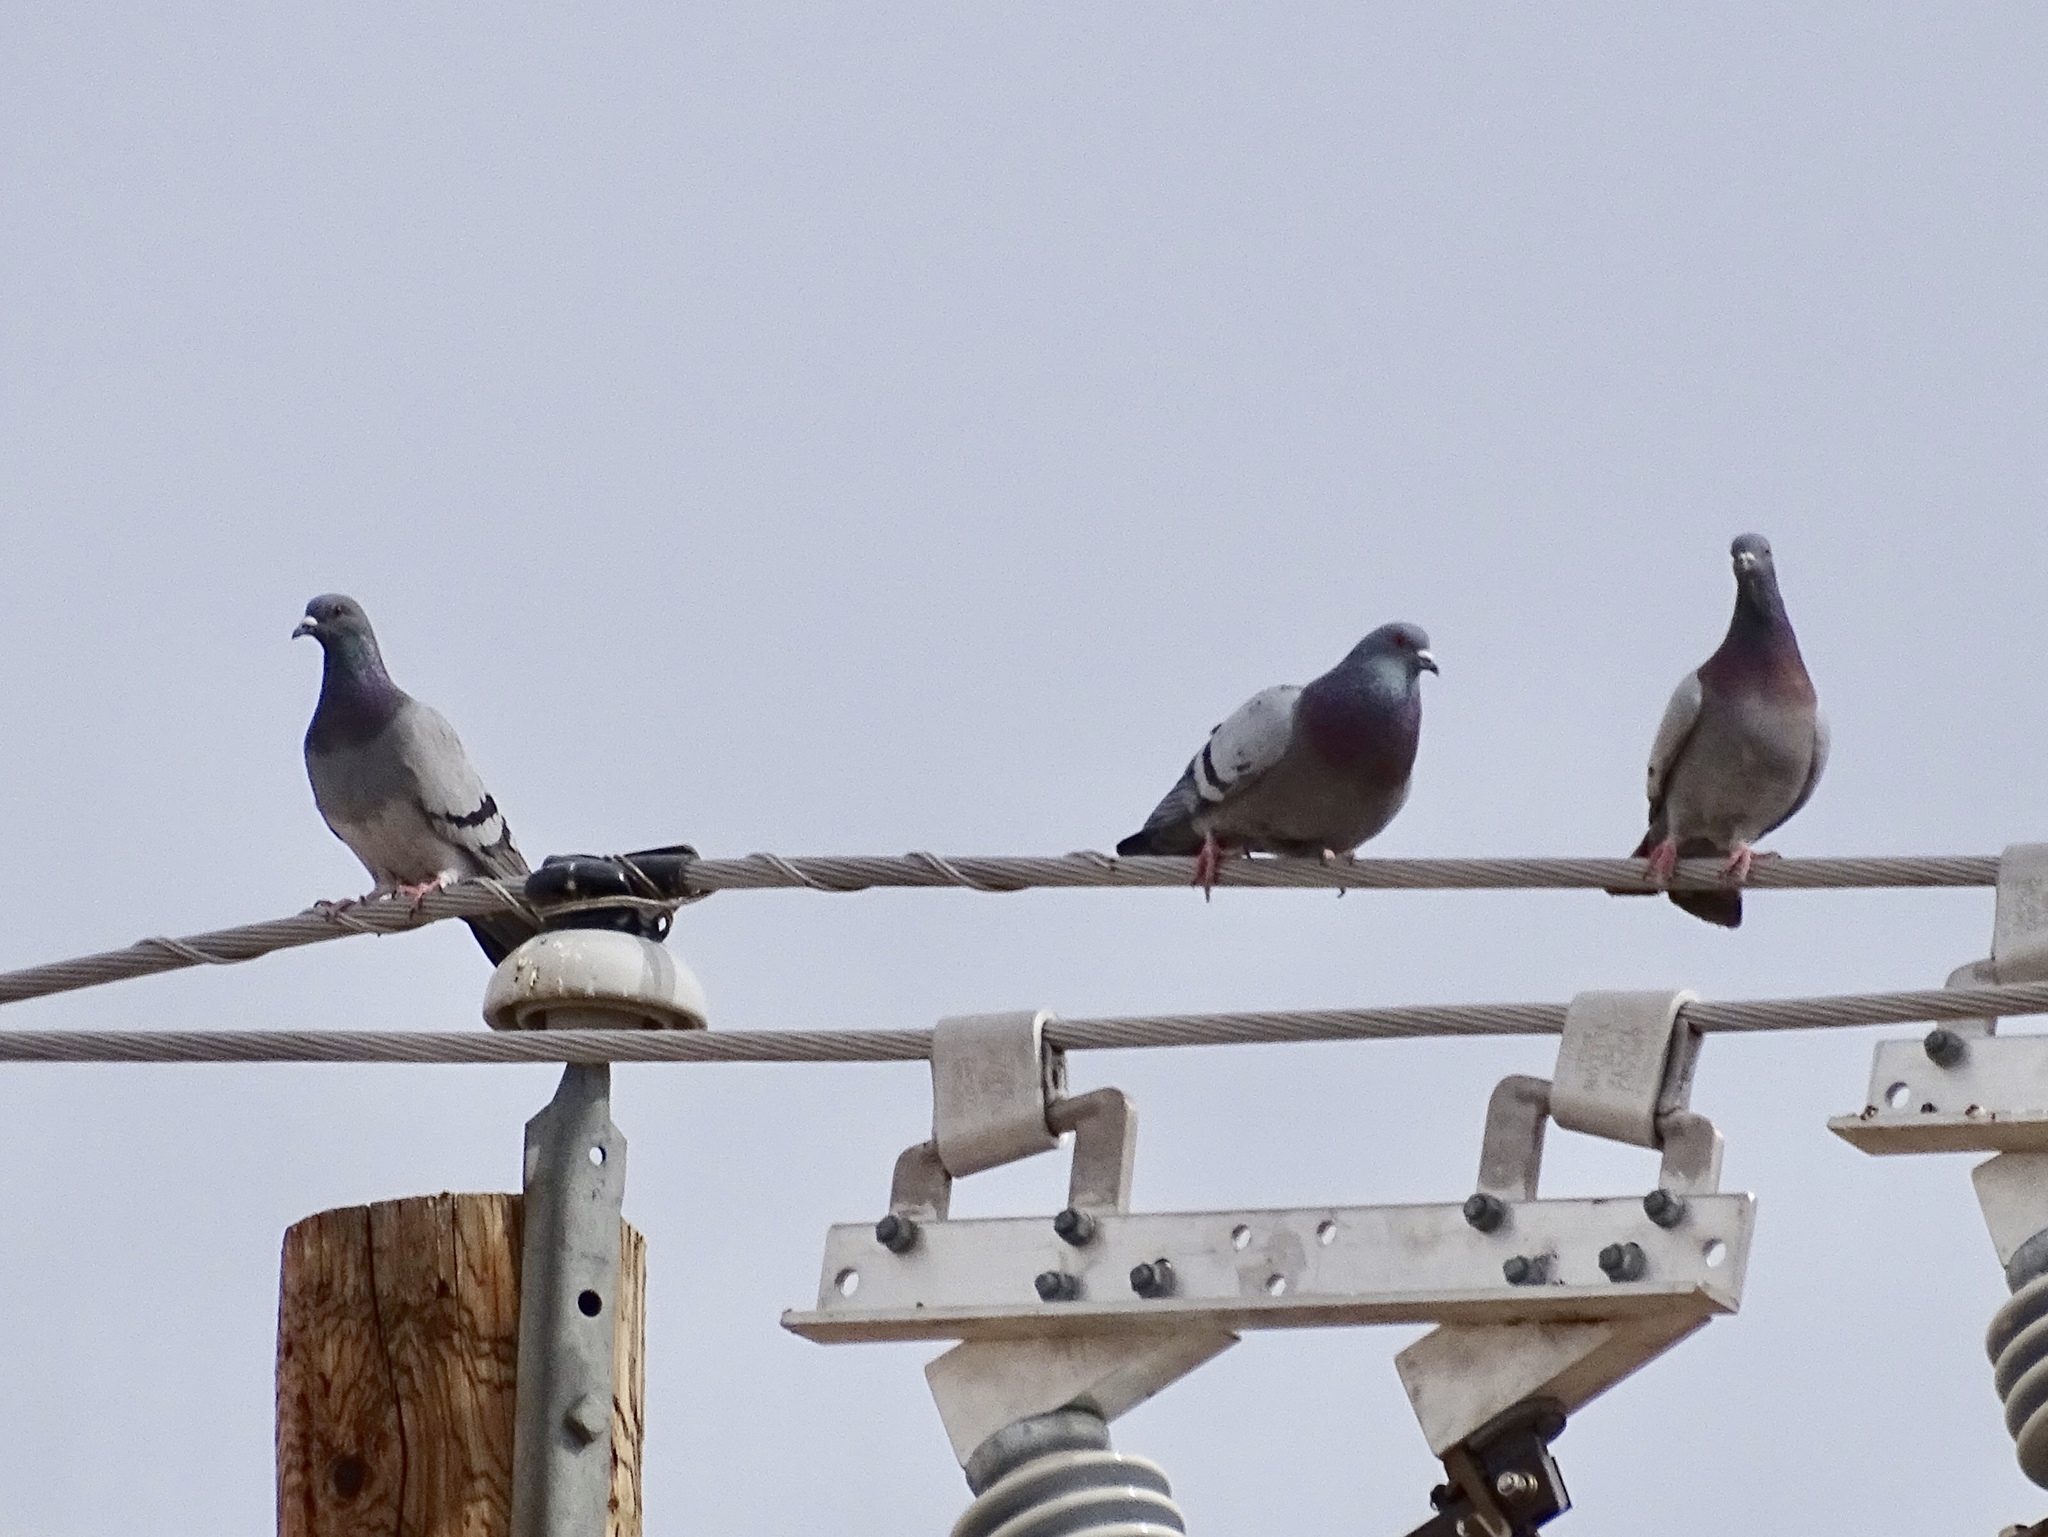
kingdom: Animalia
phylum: Chordata
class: Aves
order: Columbiformes
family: Columbidae
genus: Columba
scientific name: Columba livia
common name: Rock pigeon
